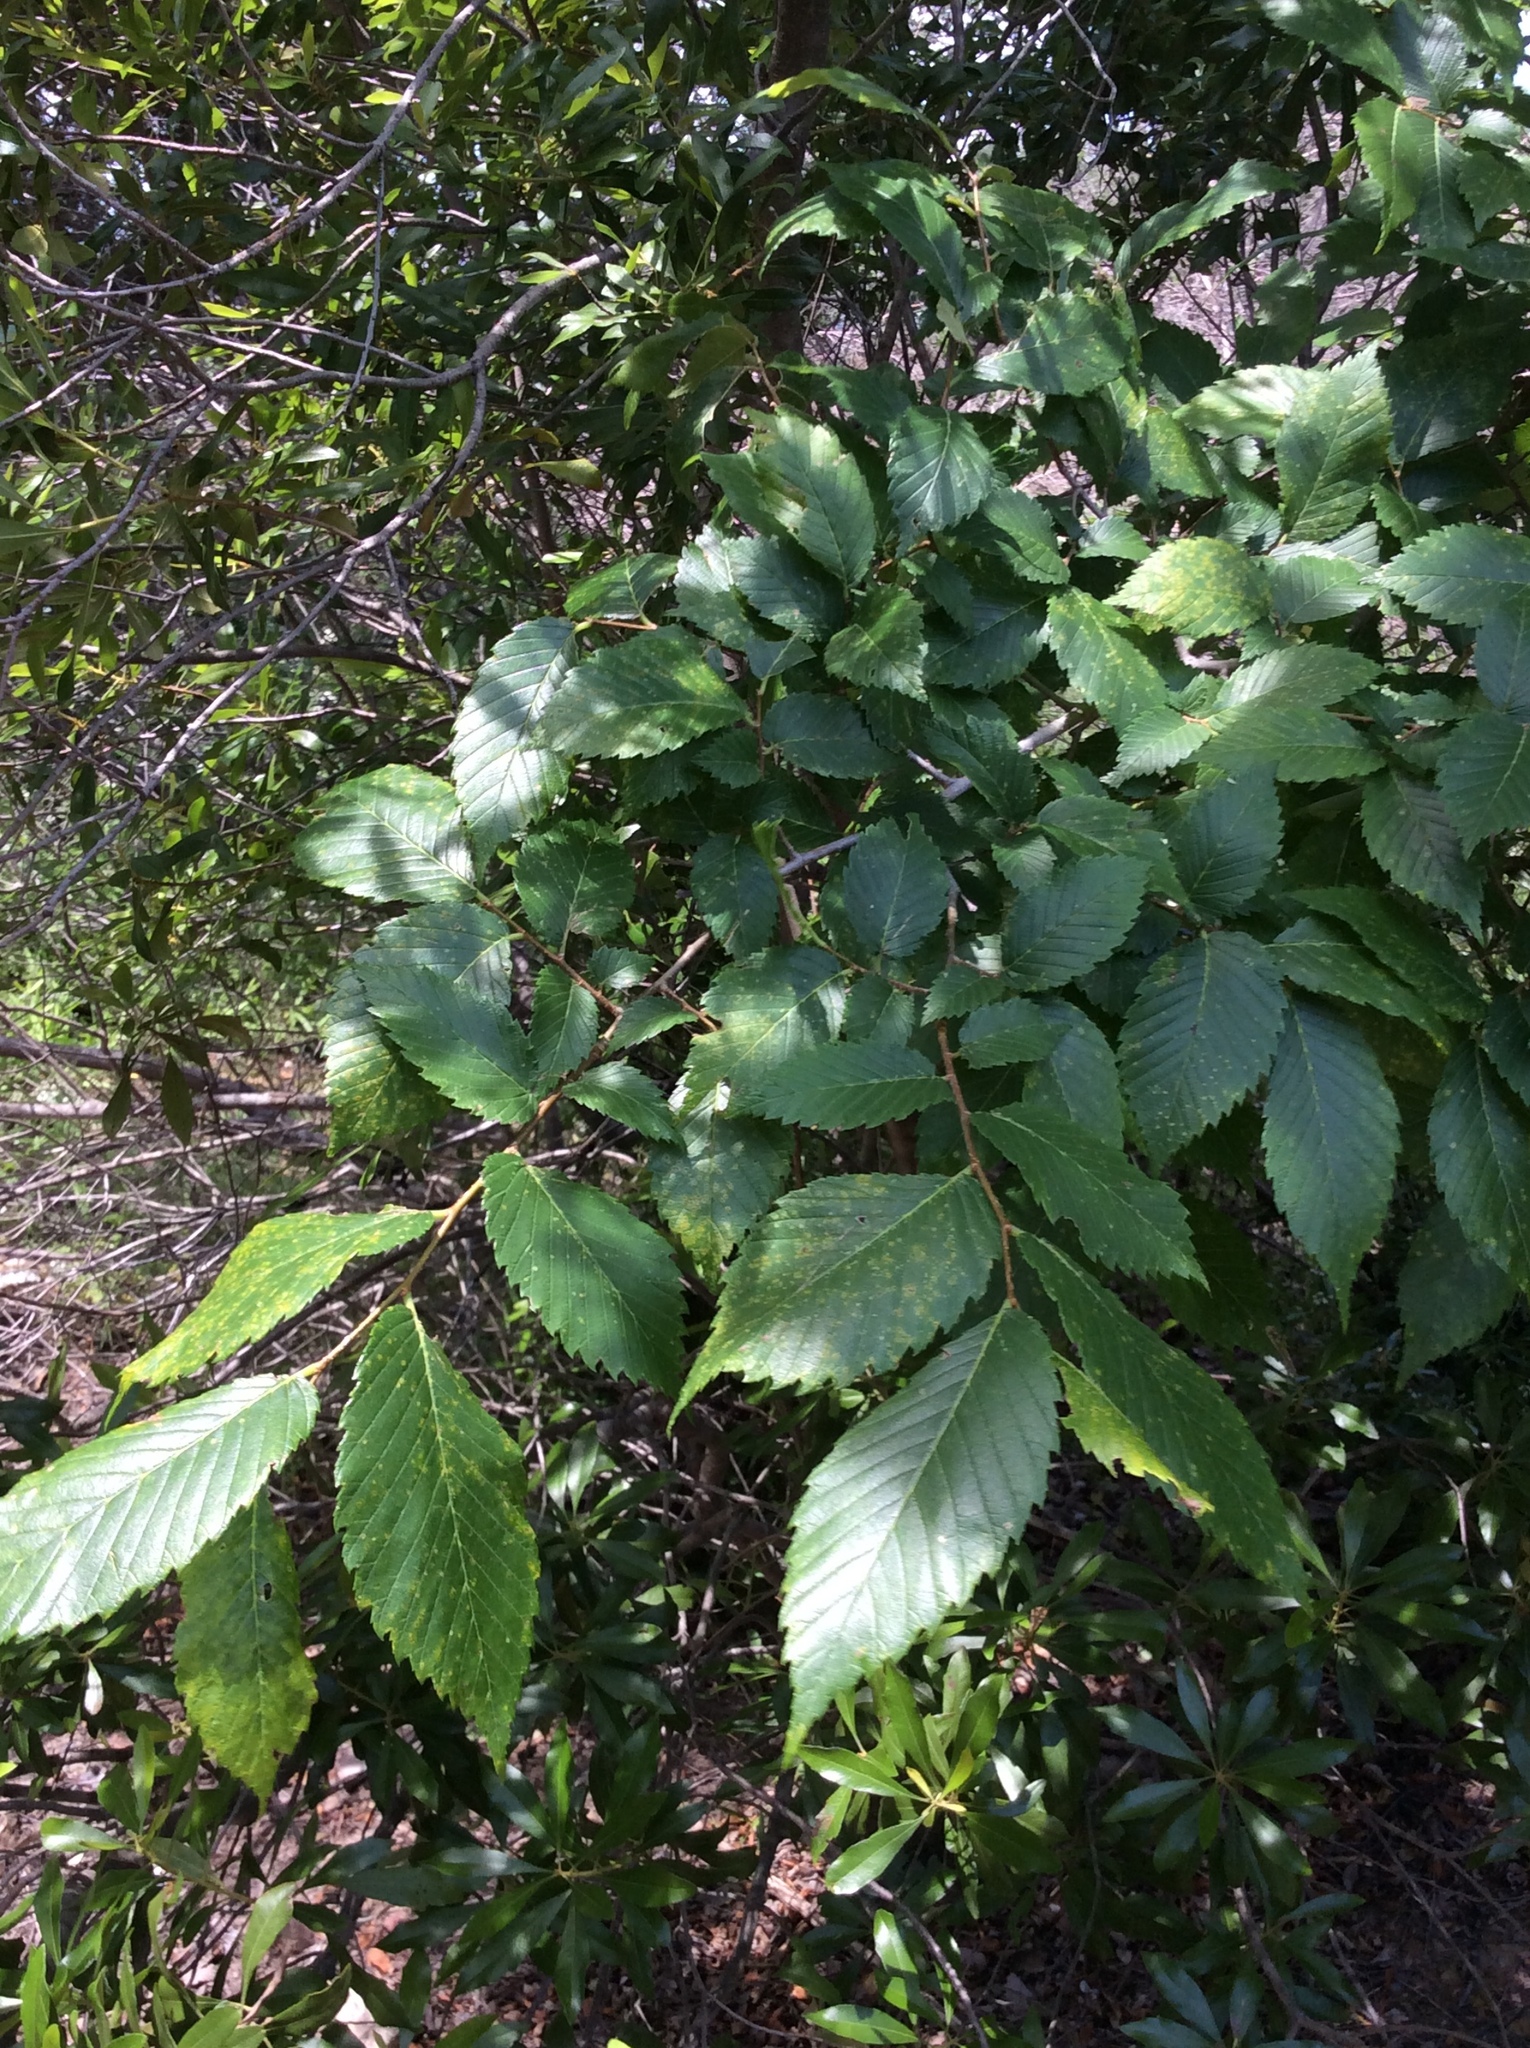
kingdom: Plantae
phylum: Tracheophyta
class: Magnoliopsida
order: Rosales
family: Ulmaceae
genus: Ulmus
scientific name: Ulmus americana
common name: American elm
